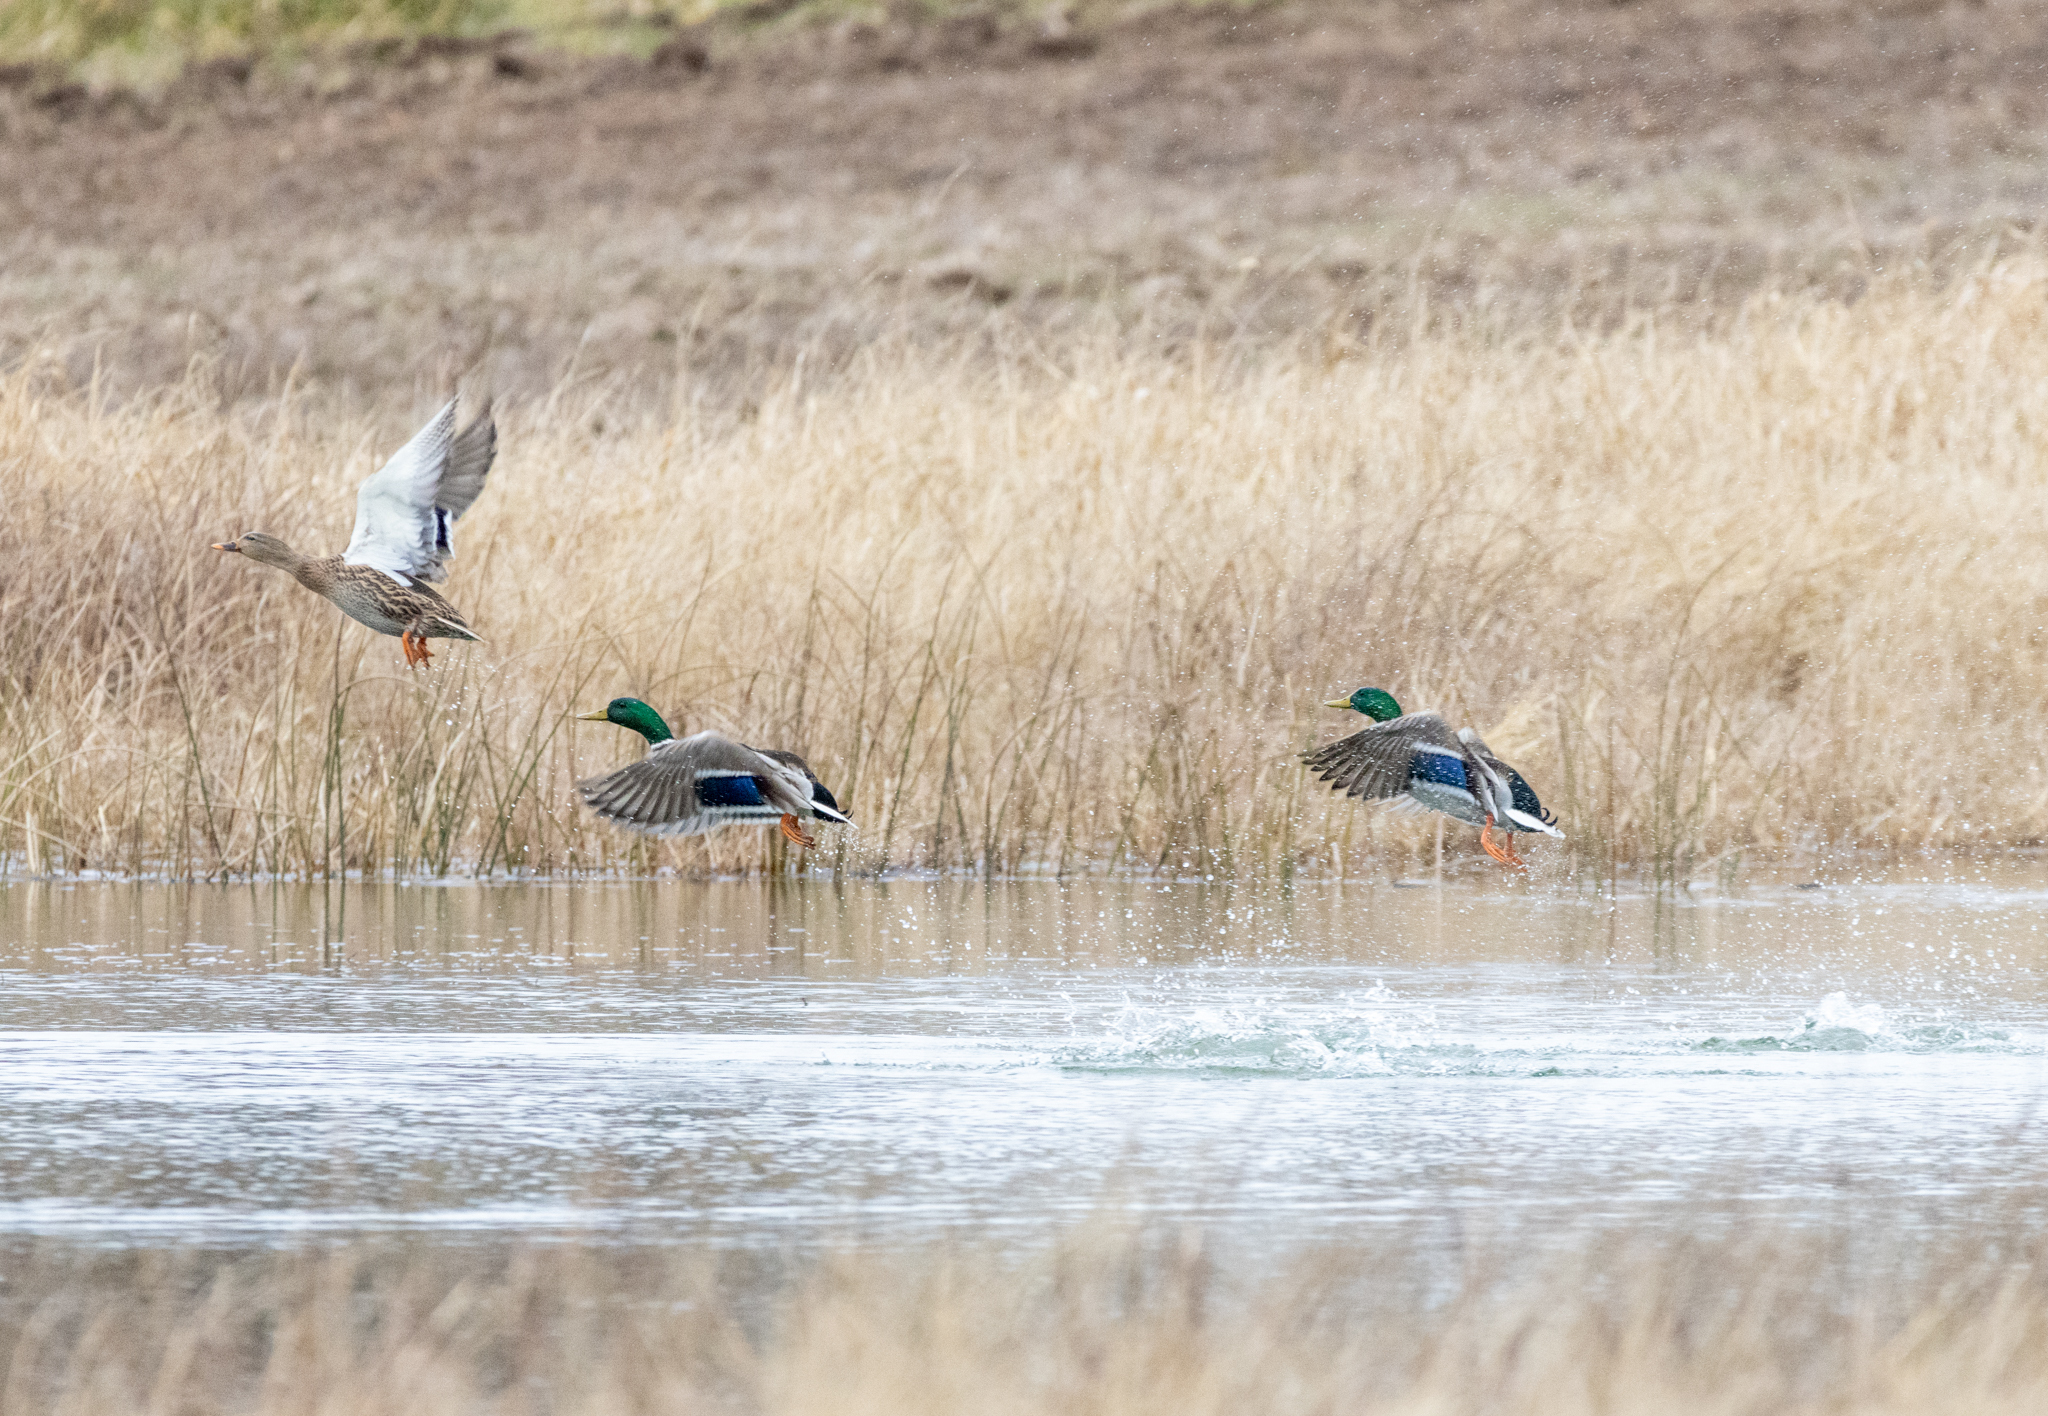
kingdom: Animalia
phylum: Chordata
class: Aves
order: Anseriformes
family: Anatidae
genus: Anas
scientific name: Anas platyrhynchos
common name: Mallard
